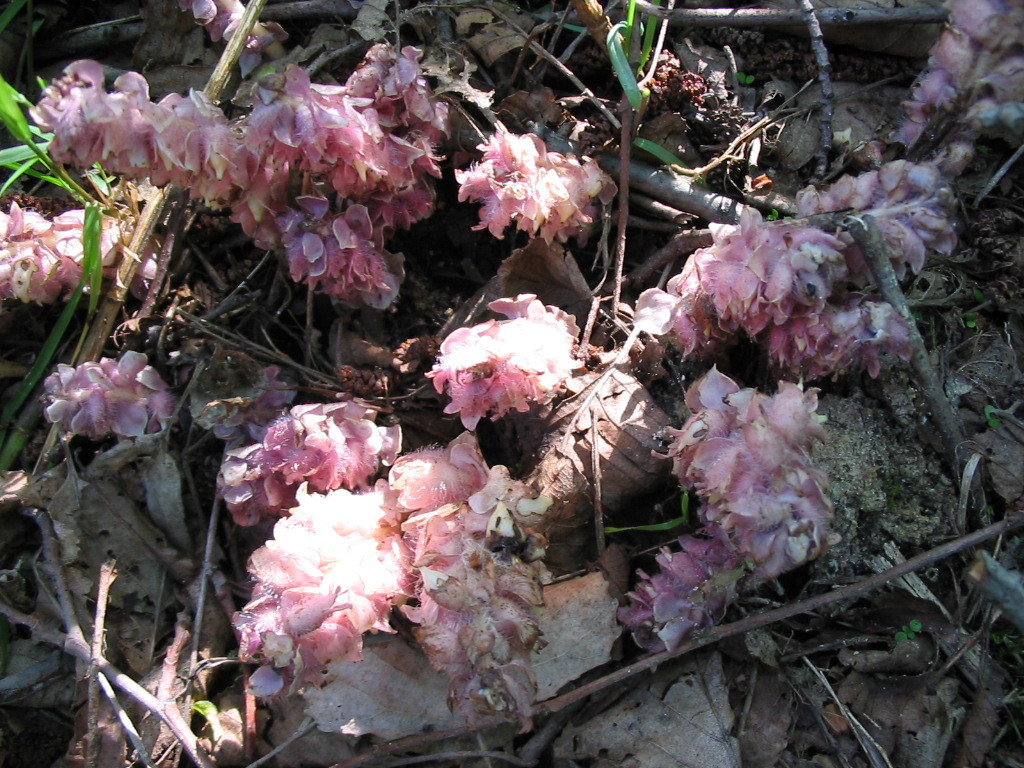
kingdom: Plantae
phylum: Tracheophyta
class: Magnoliopsida
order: Lamiales
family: Orobanchaceae
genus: Lathraea
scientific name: Lathraea squamaria
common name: Toothwort
